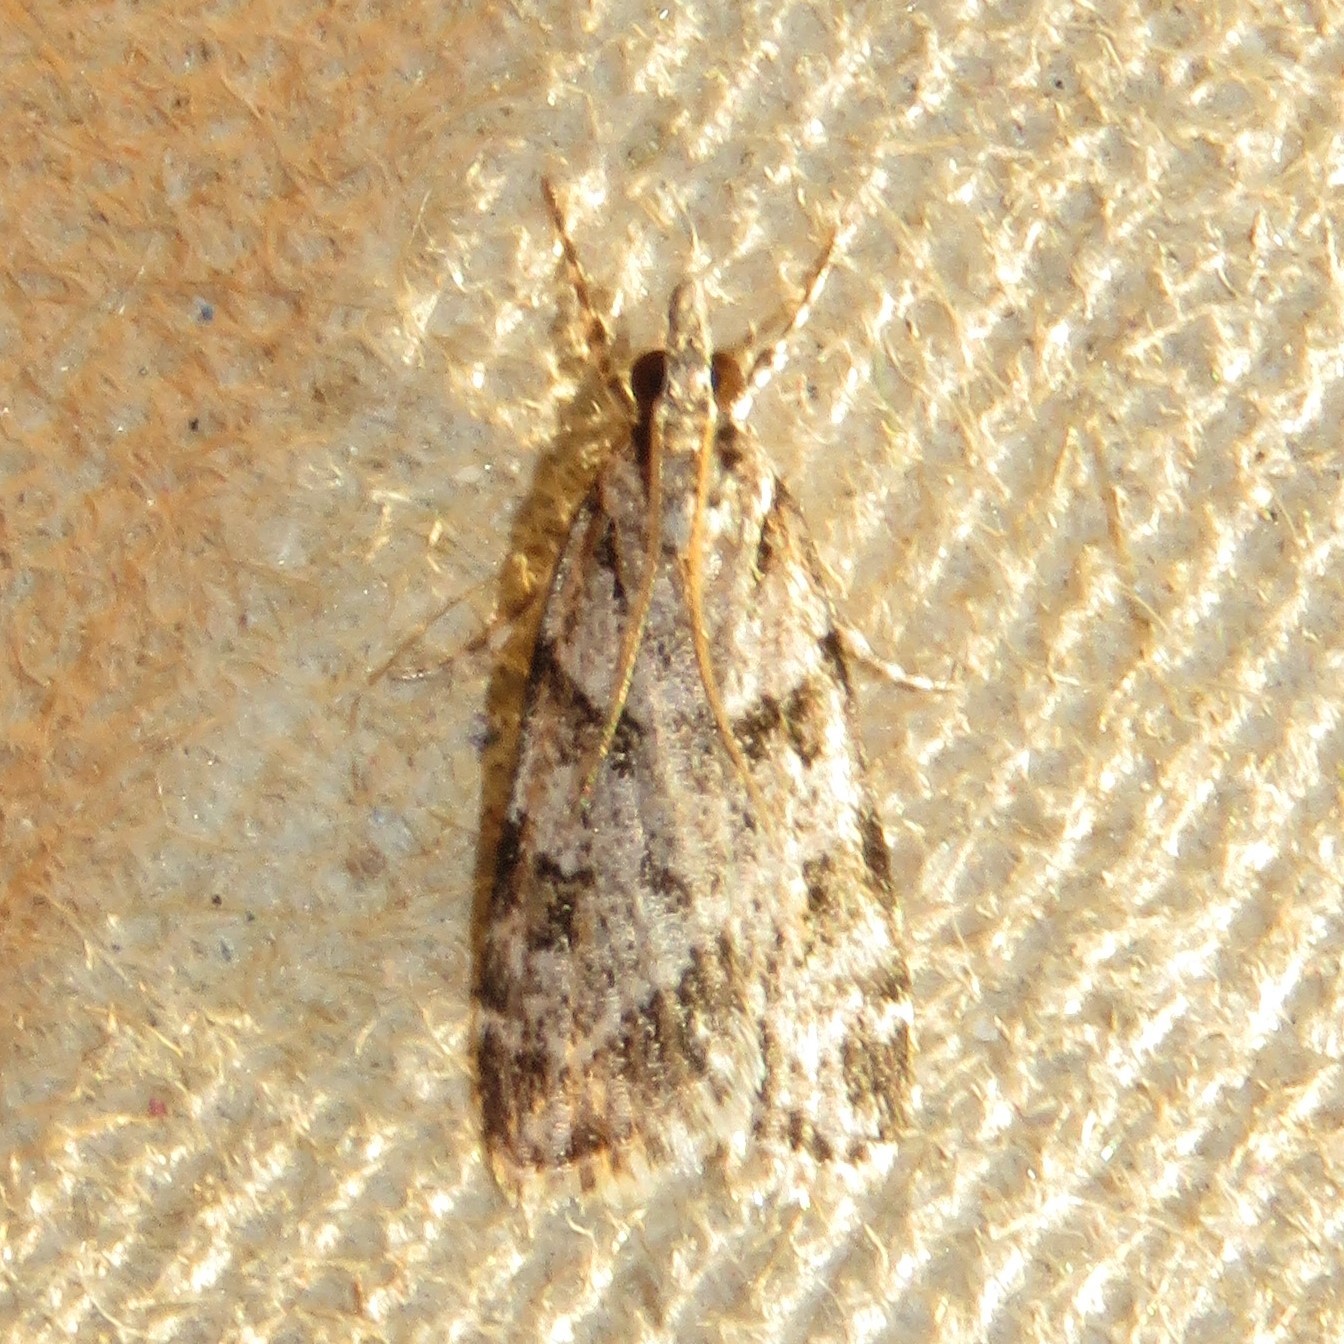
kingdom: Animalia
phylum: Arthropoda
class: Insecta
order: Lepidoptera
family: Crambidae
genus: Scoparia
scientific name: Scoparia biplagialis
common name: Double-striped scoparia moth
